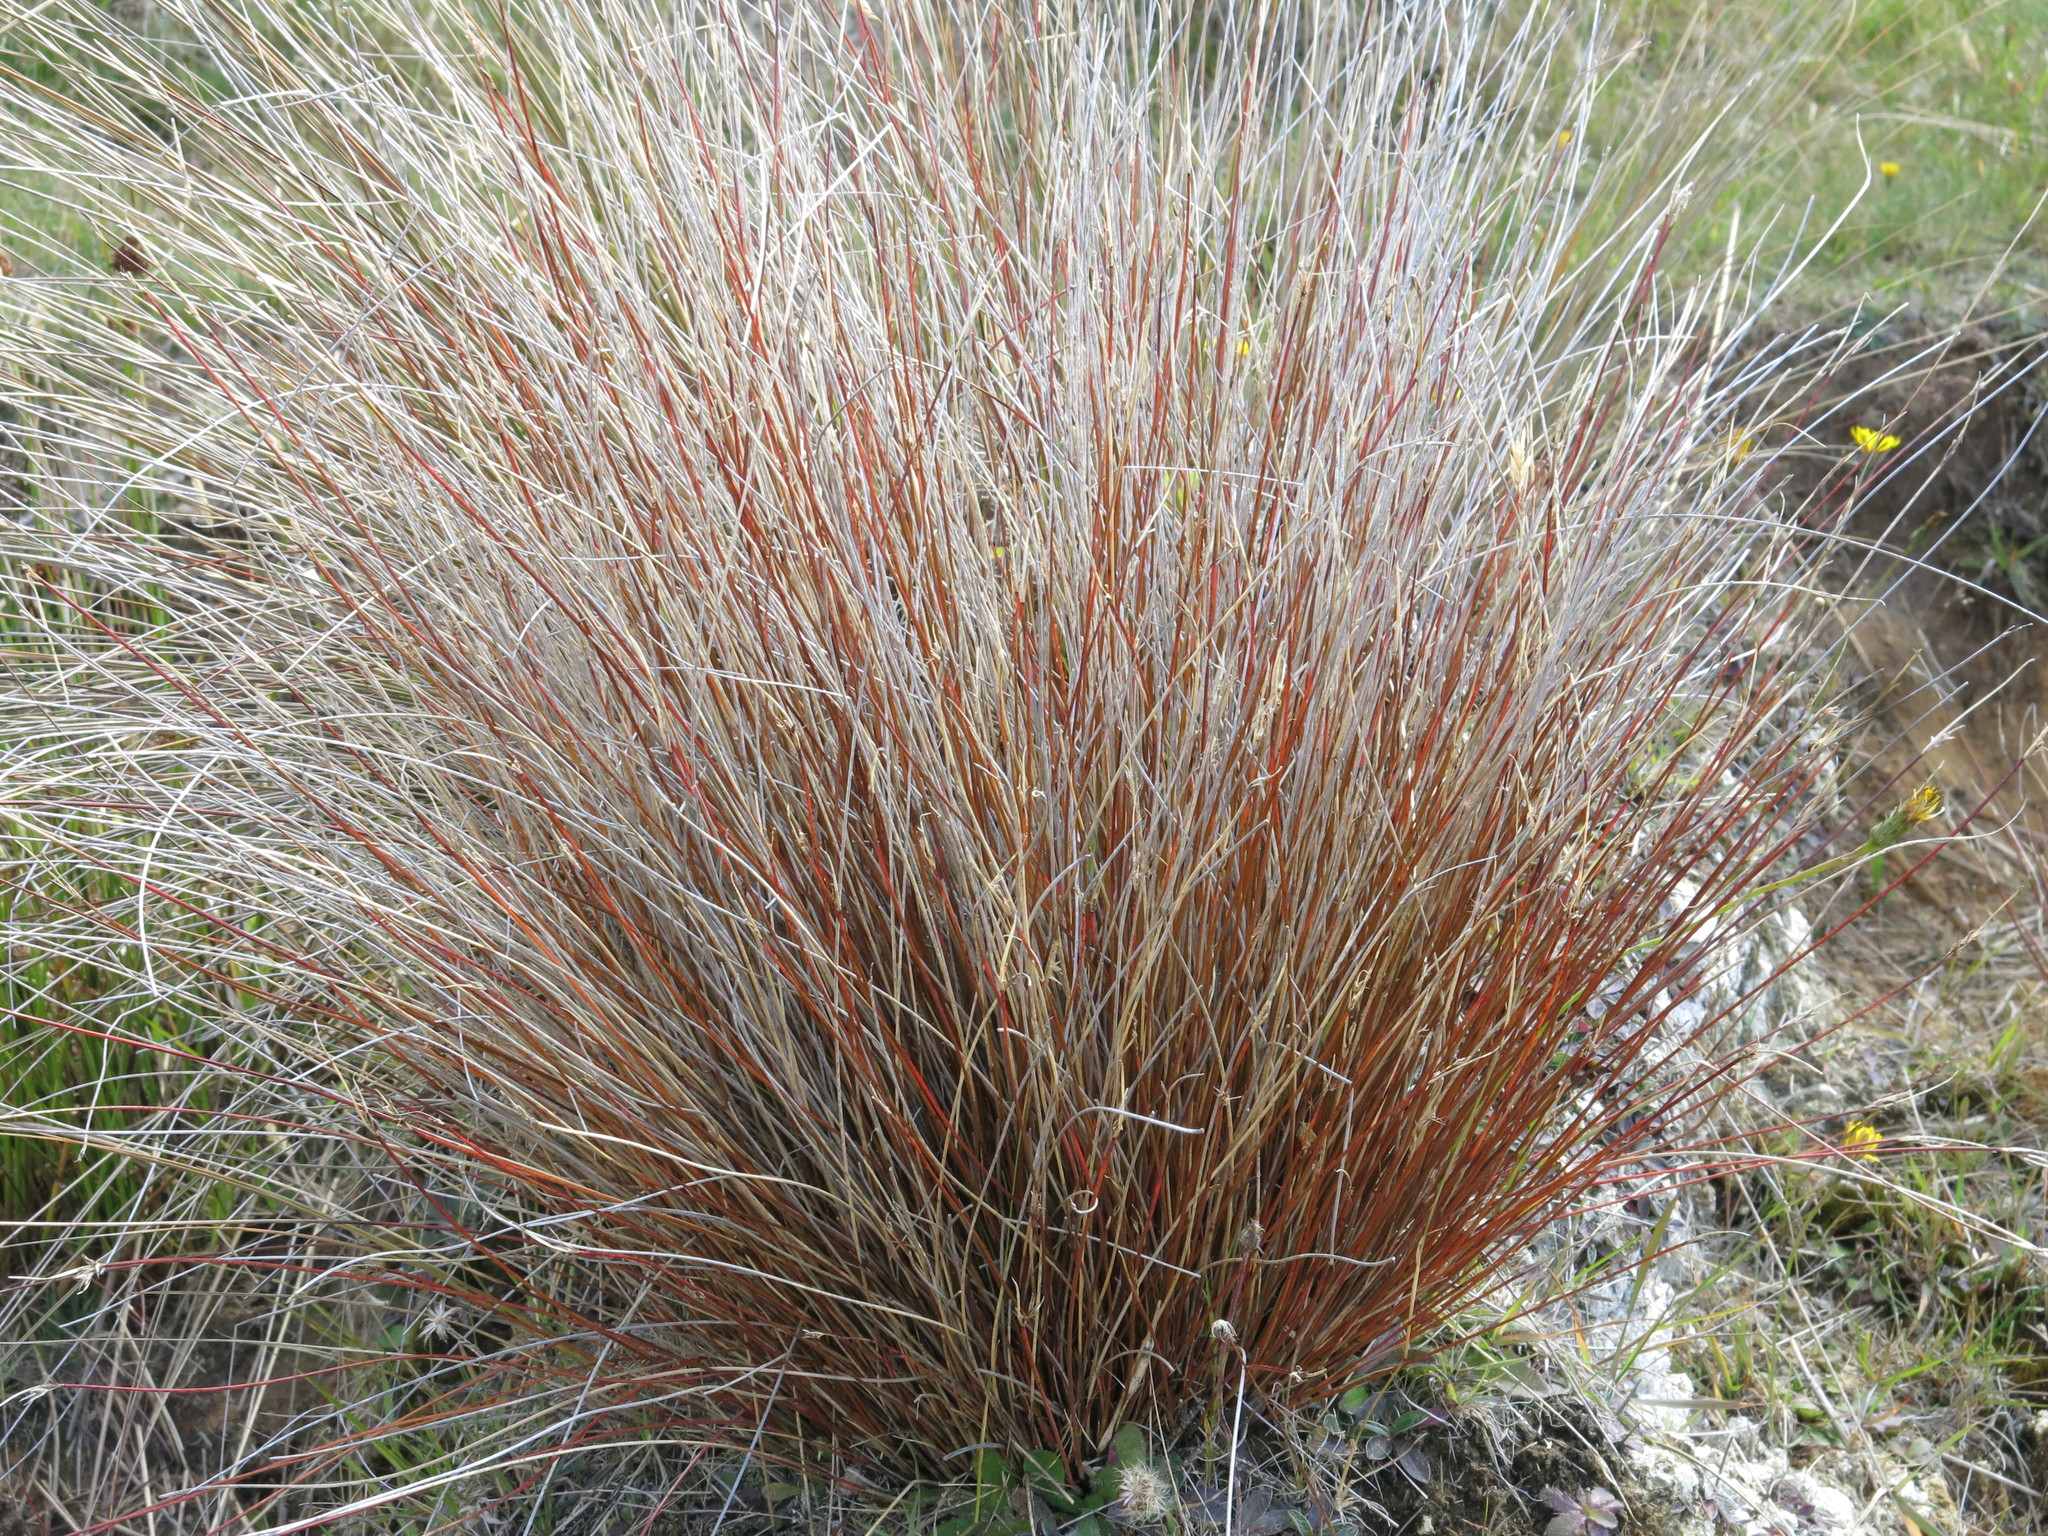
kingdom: Plantae
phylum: Tracheophyta
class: Liliopsida
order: Poales
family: Cyperaceae
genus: Schoenus
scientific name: Schoenus pauciflorus
